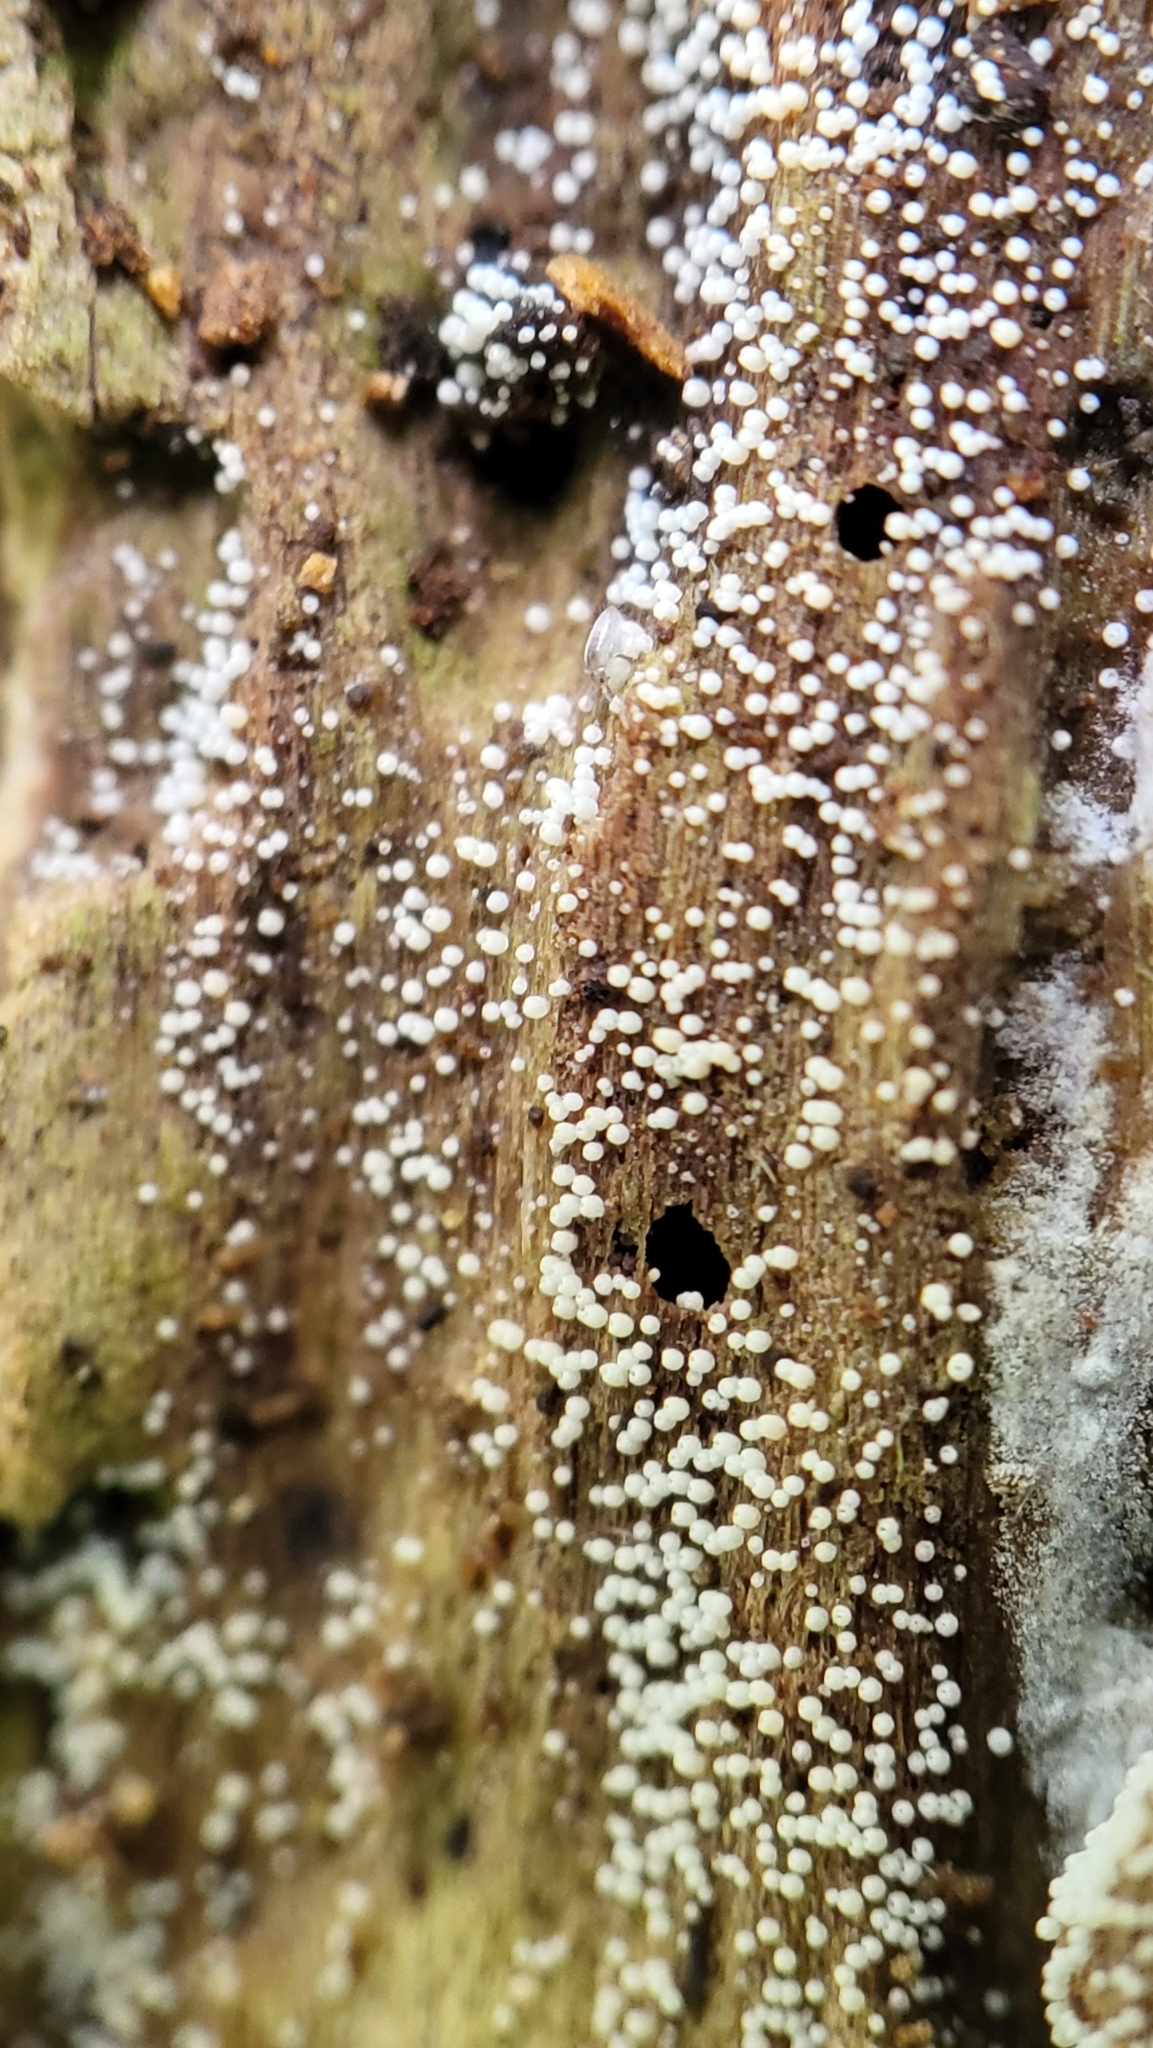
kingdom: Fungi
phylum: Basidiomycota
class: Agaricomycetes
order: Agaricales
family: Marasmiaceae
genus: Henningsomyces
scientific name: Henningsomyces candidus
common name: White tubelet
